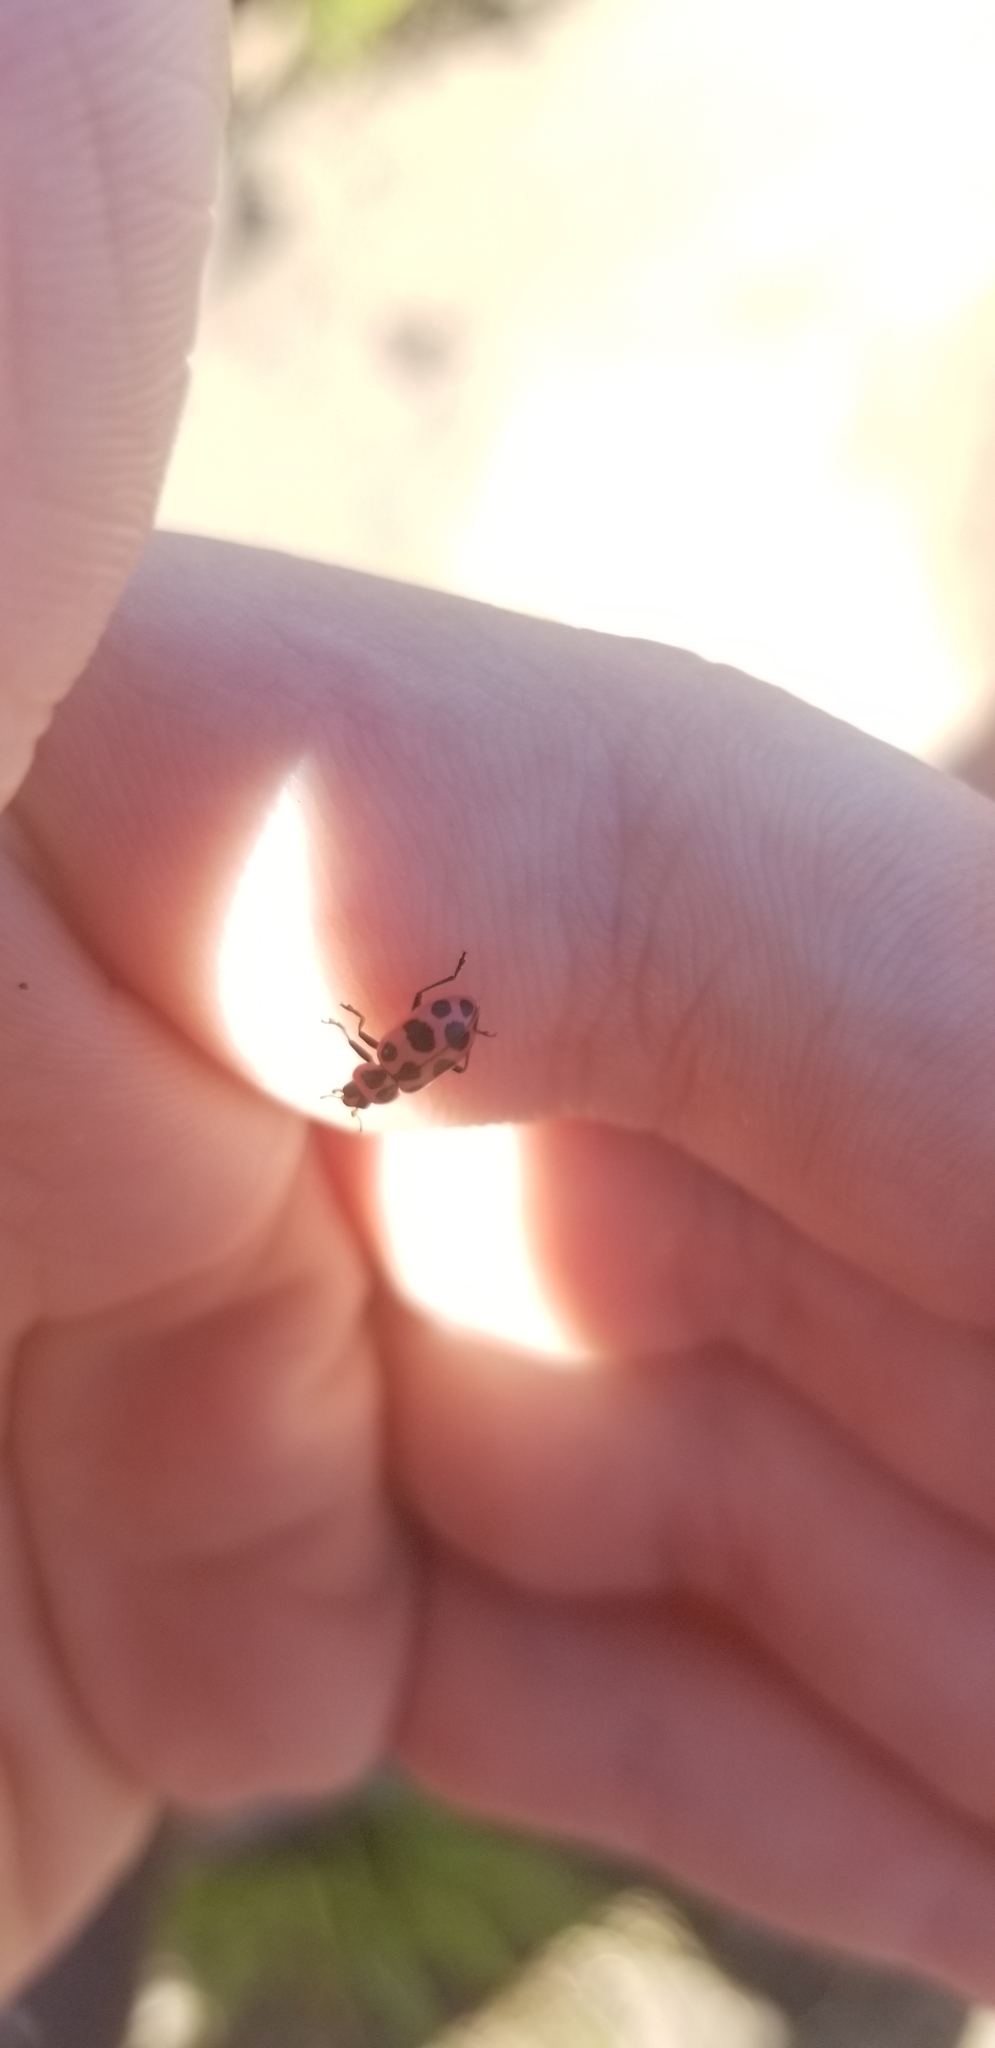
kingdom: Animalia
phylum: Arthropoda
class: Insecta
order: Coleoptera
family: Coccinellidae
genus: Coleomegilla
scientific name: Coleomegilla maculata
